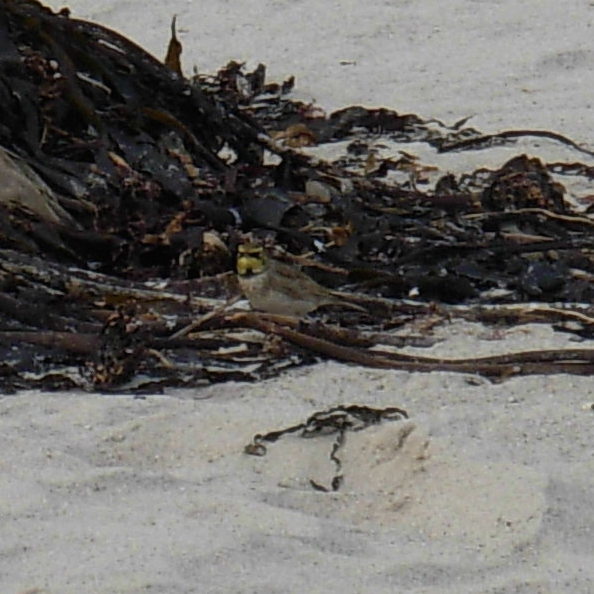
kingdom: Animalia
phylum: Chordata
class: Aves
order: Passeriformes
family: Alaudidae
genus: Eremophila
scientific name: Eremophila alpestris
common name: Horned lark
